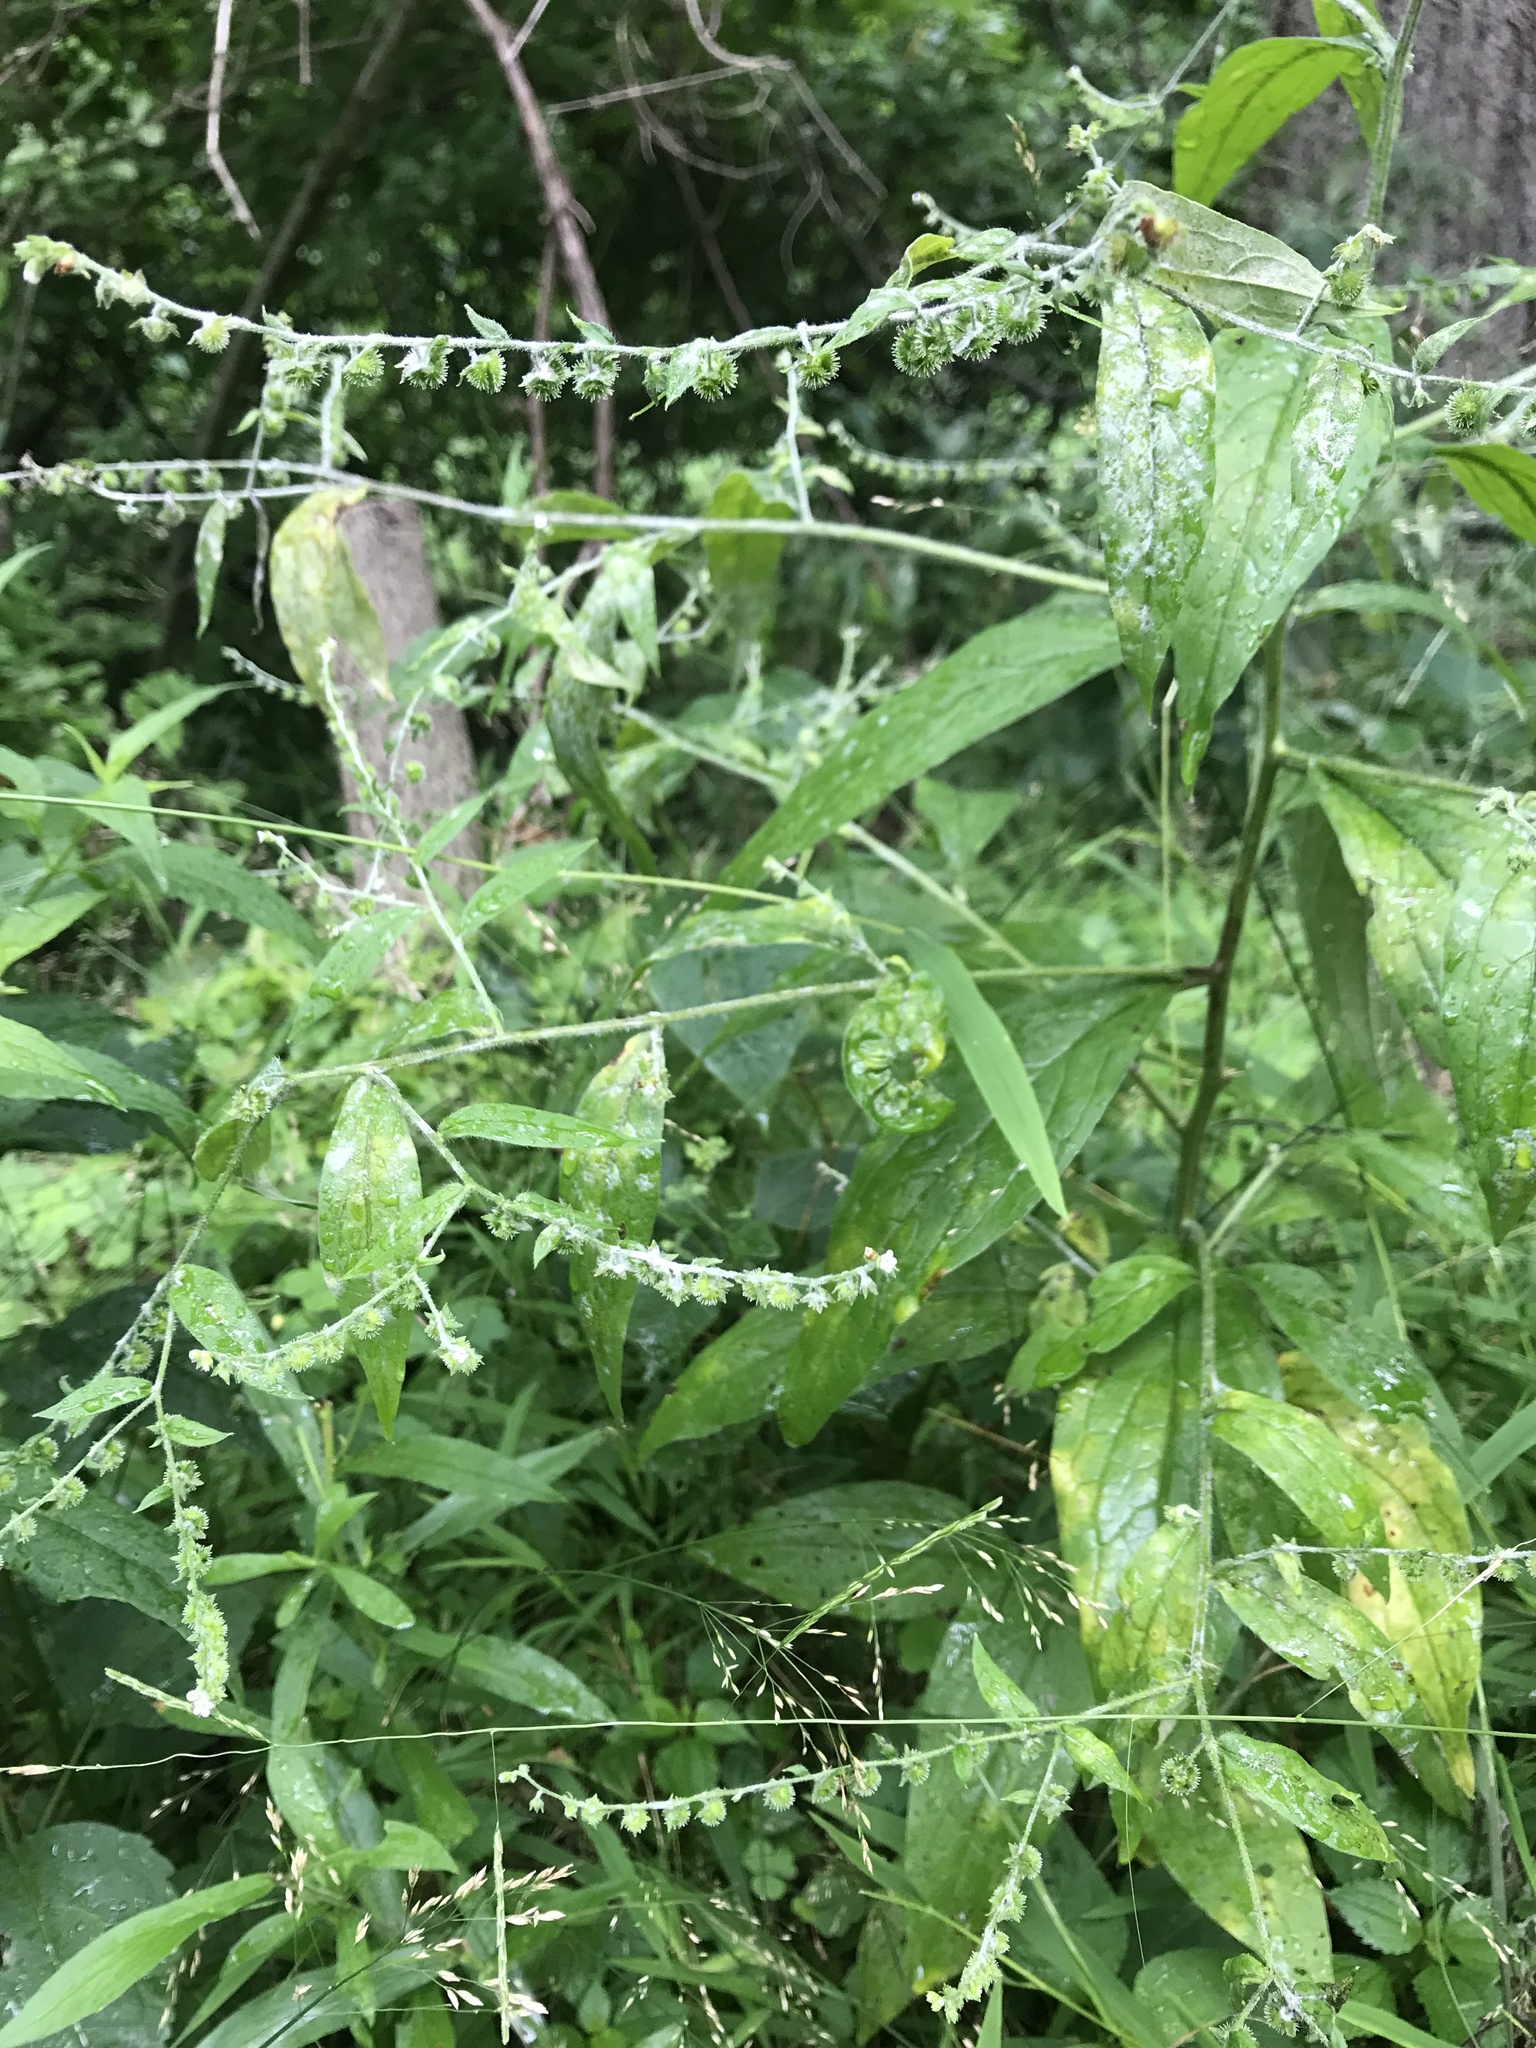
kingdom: Plantae
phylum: Tracheophyta
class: Magnoliopsida
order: Boraginales
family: Boraginaceae
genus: Hackelia
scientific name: Hackelia virginiana
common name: Beggar's-lice
